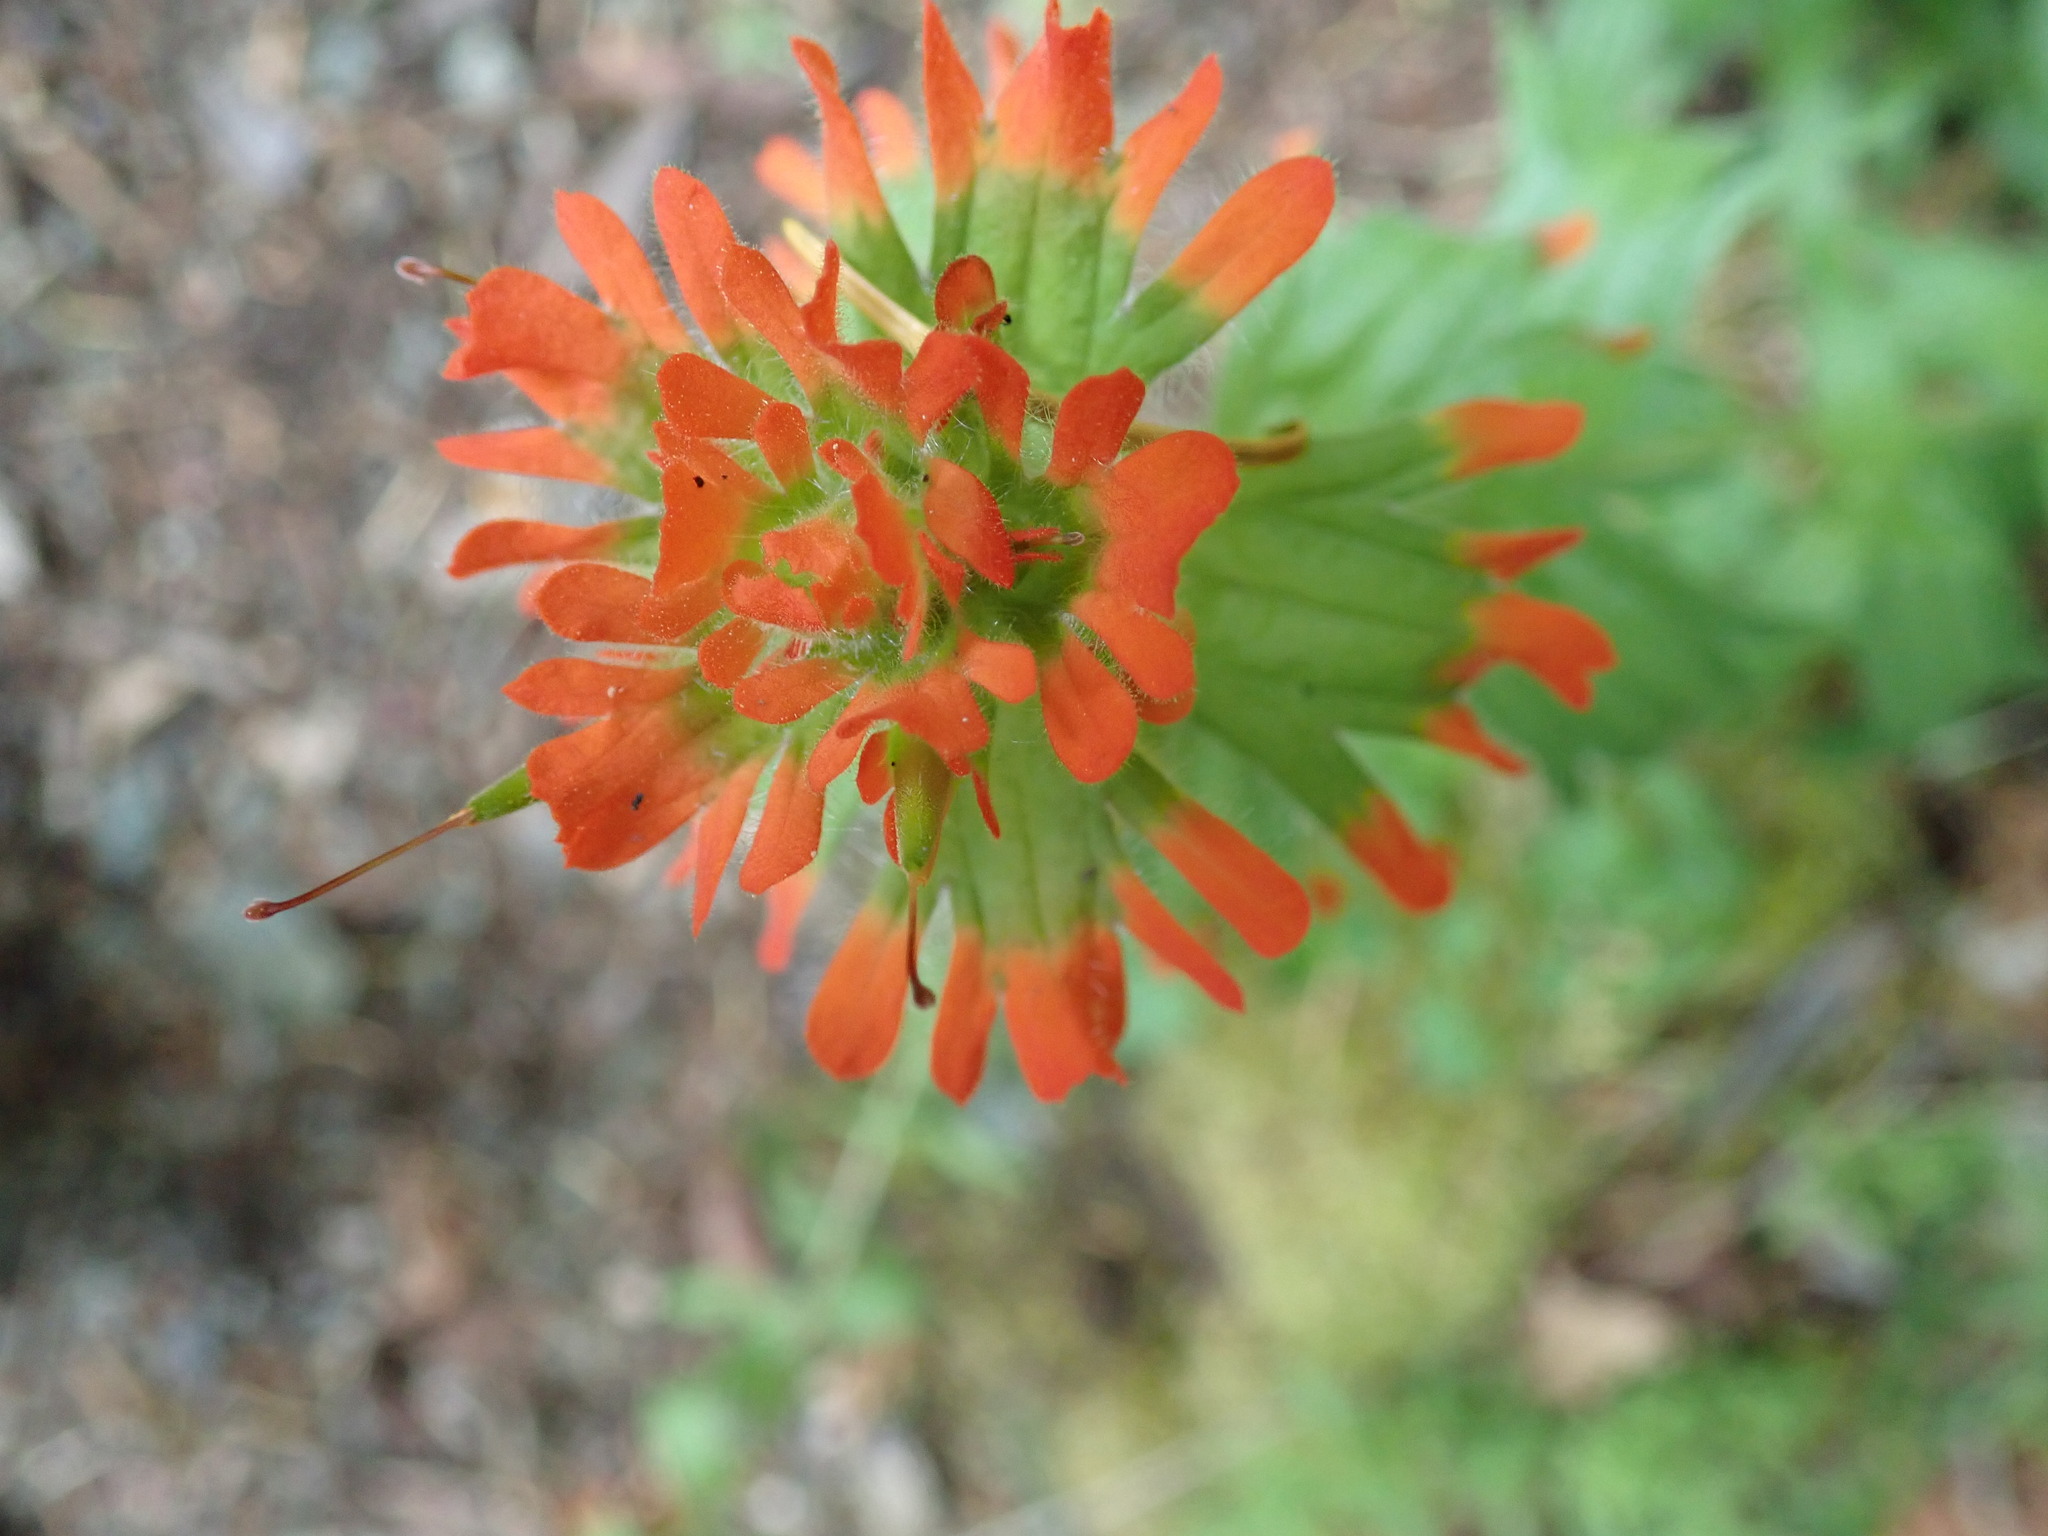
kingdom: Plantae
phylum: Tracheophyta
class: Magnoliopsida
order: Lamiales
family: Orobanchaceae
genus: Castilleja
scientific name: Castilleja hispida
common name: Bristly paintbrush
